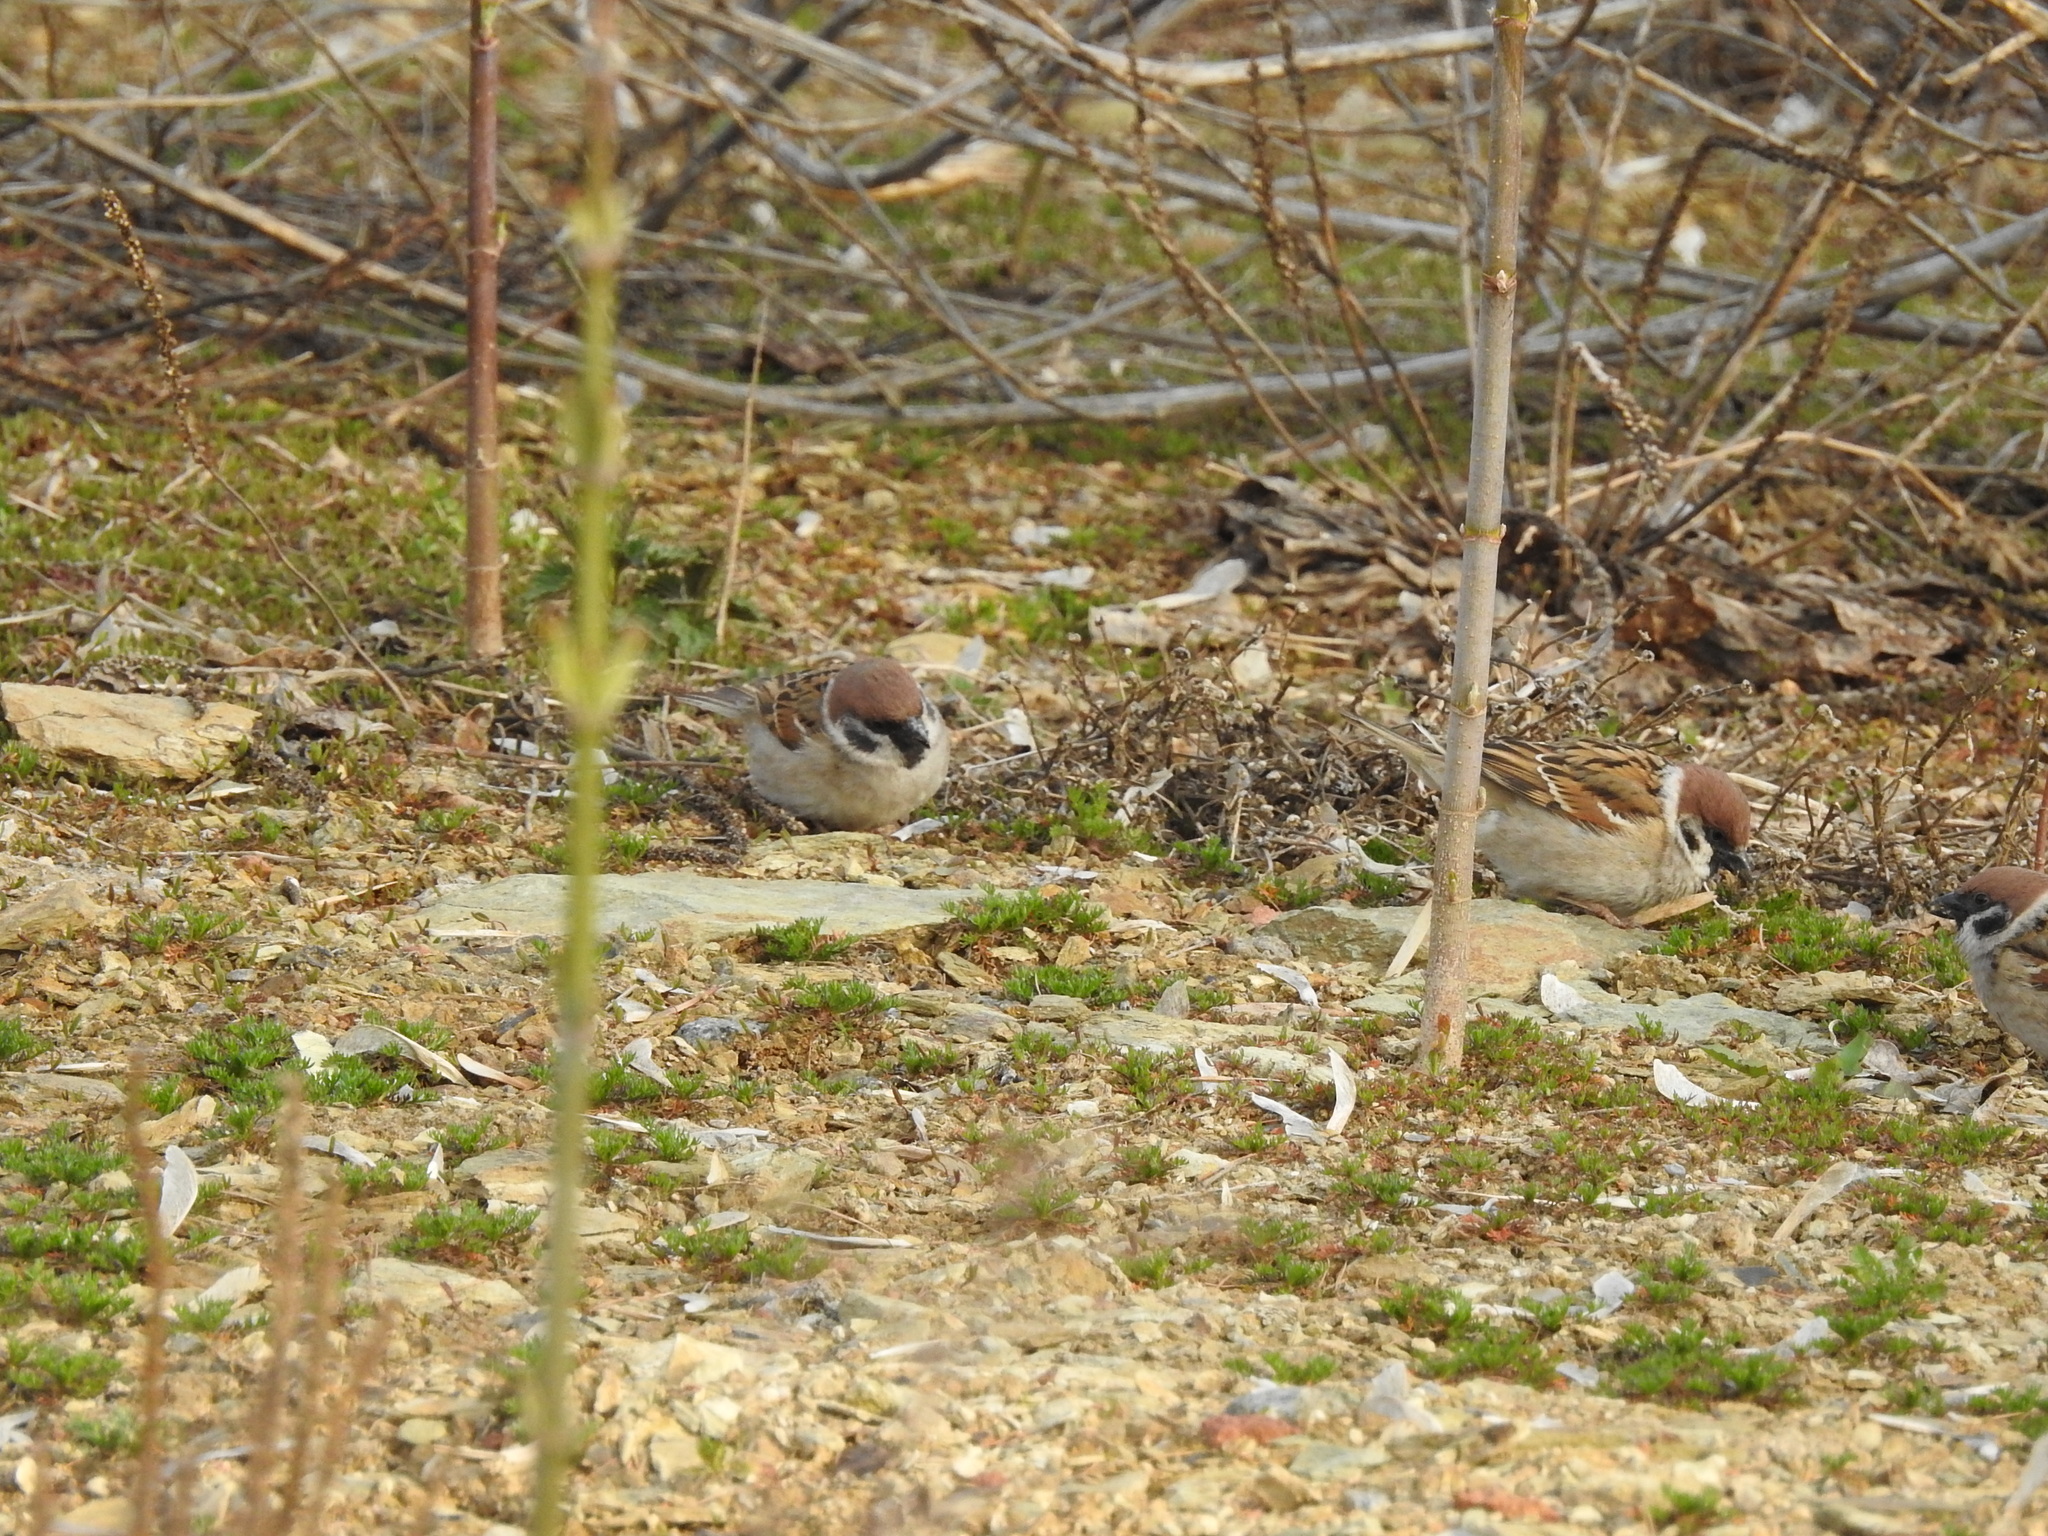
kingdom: Animalia
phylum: Chordata
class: Aves
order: Passeriformes
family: Passeridae
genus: Passer
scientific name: Passer montanus
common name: Eurasian tree sparrow
